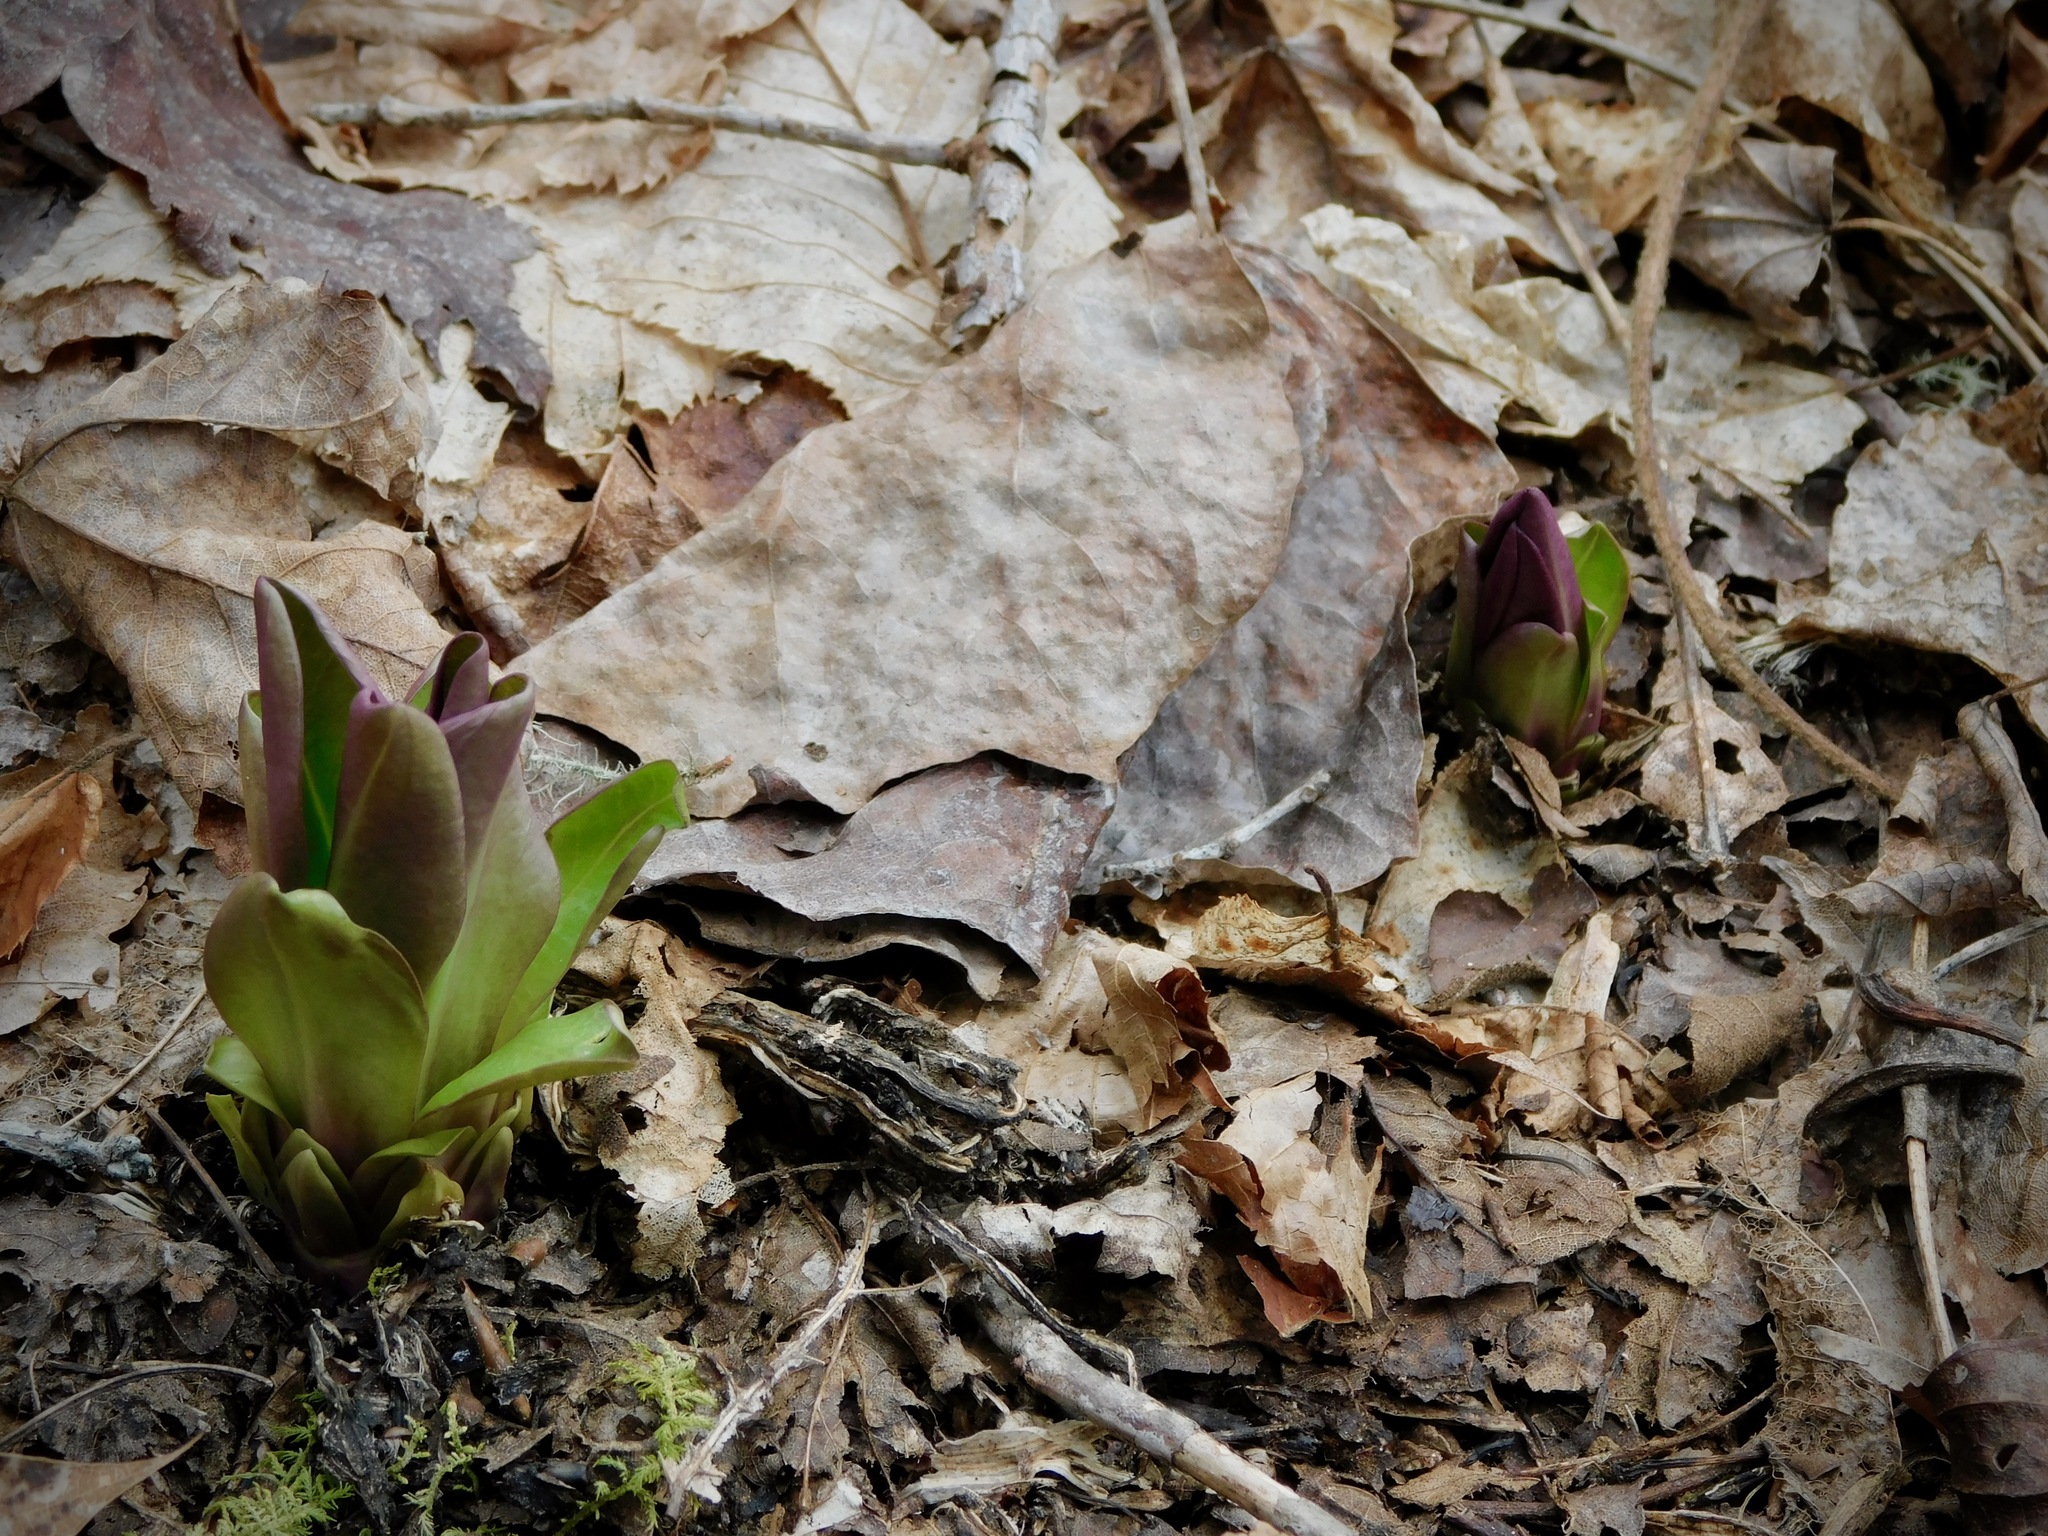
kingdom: Plantae
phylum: Tracheophyta
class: Magnoliopsida
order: Gentianales
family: Gentianaceae
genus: Frasera
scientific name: Frasera caroliniensis
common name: American columbo
